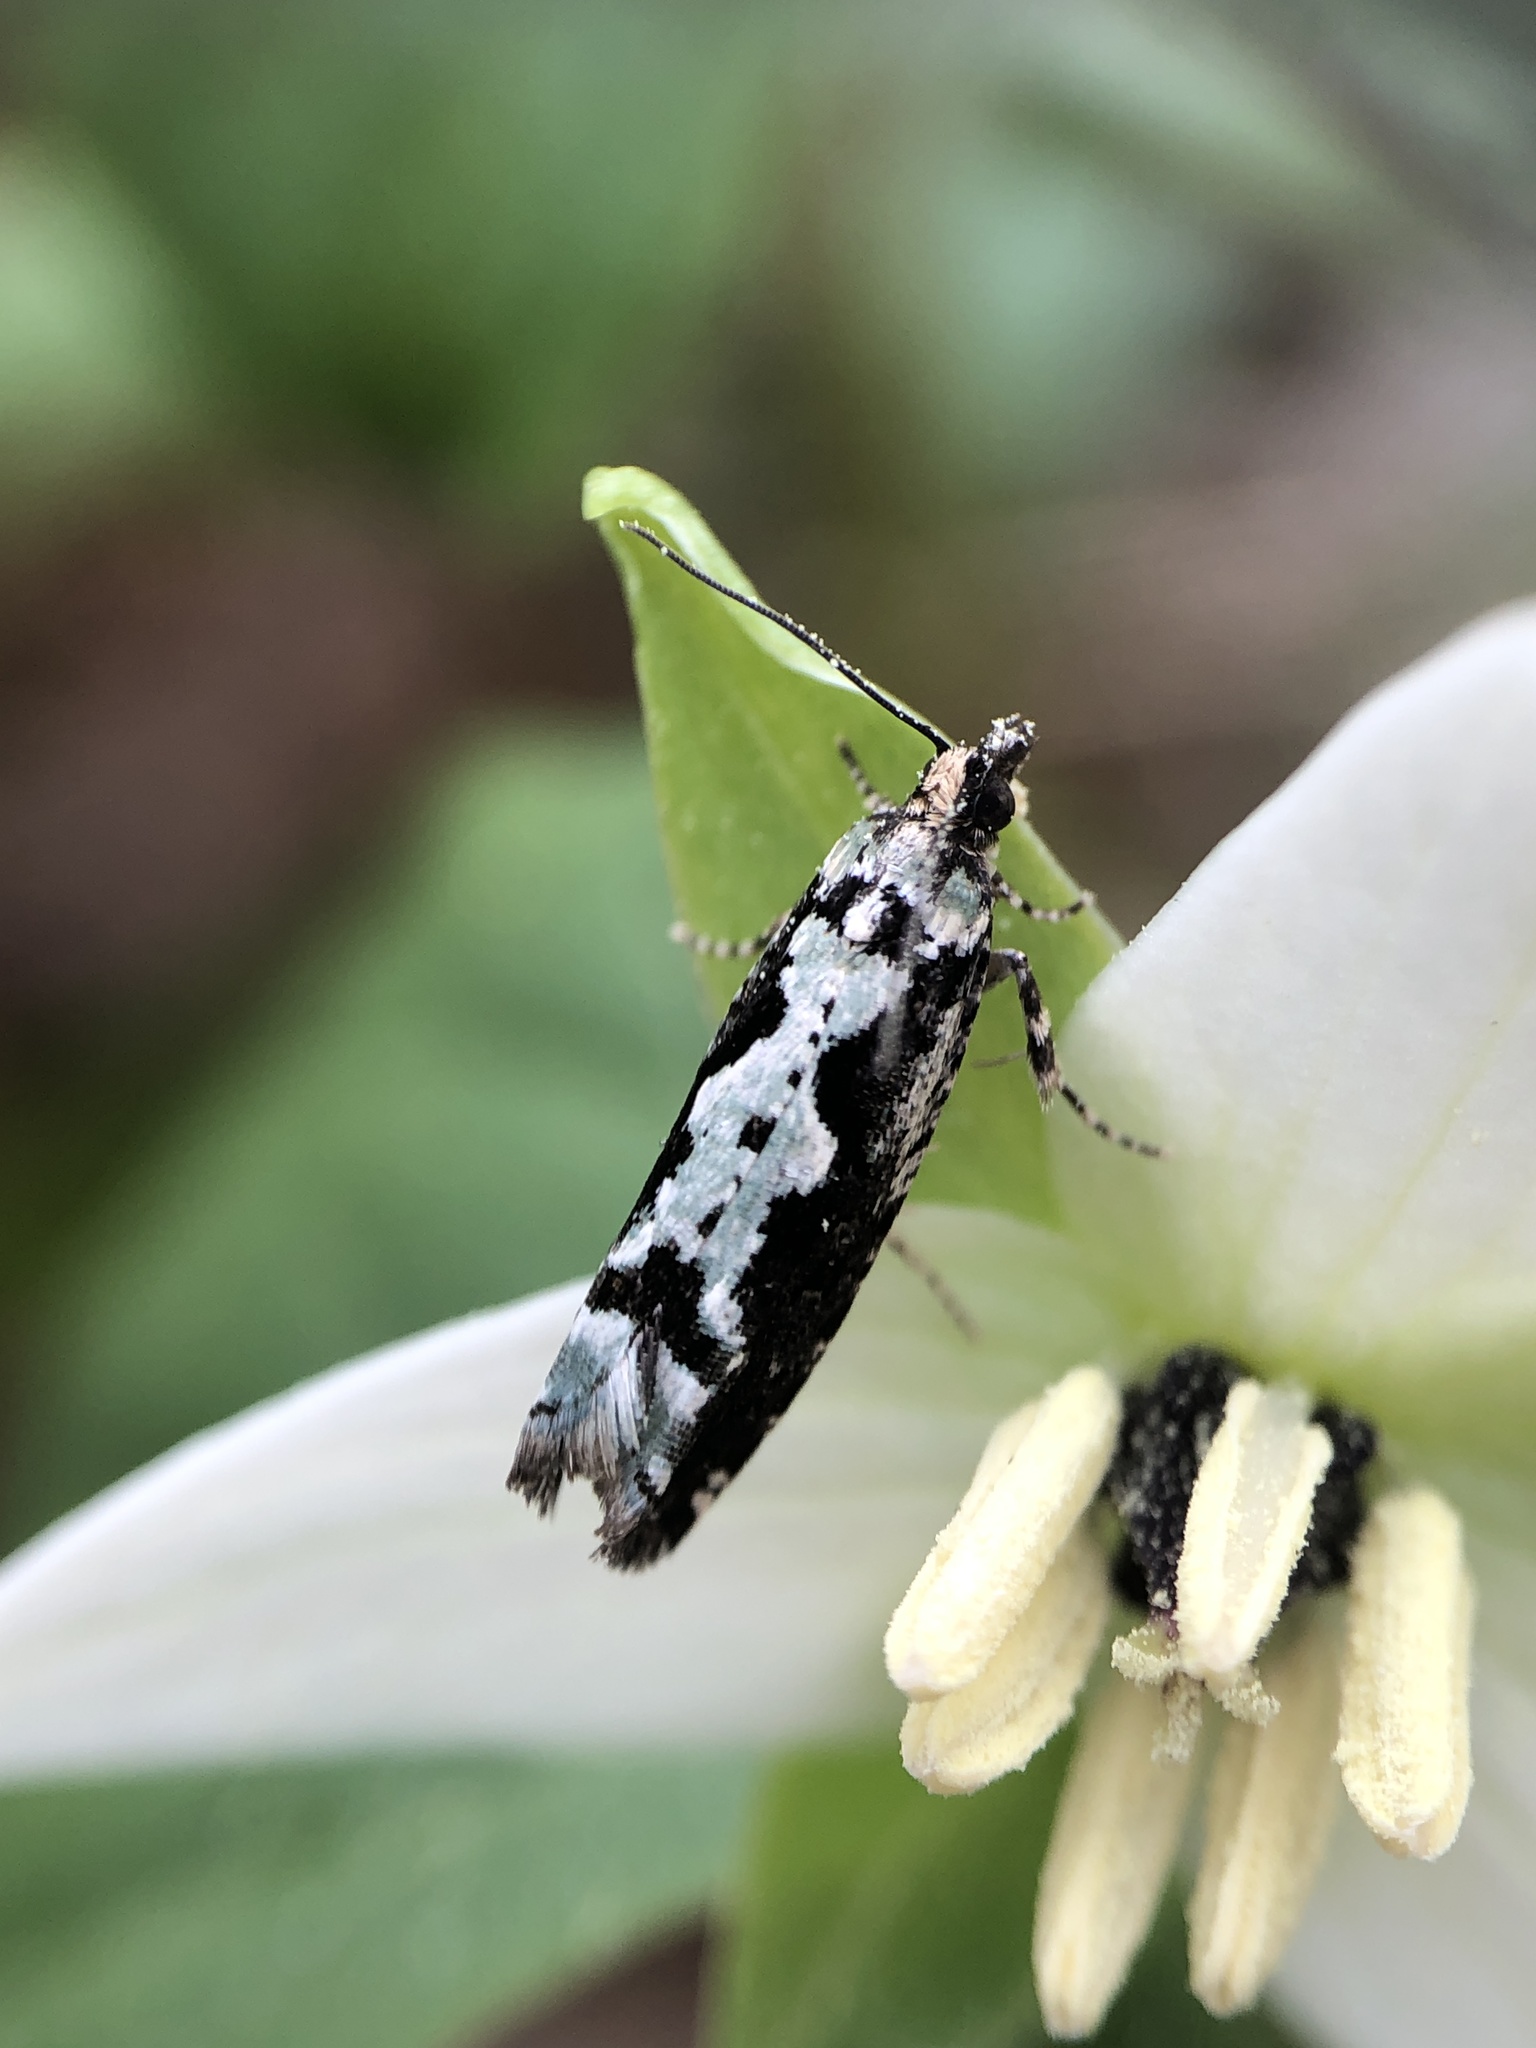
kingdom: Animalia
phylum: Arthropoda
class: Insecta
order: Lepidoptera
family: Tortricidae
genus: Chimoptesis
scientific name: Chimoptesis pennsylvaniana
